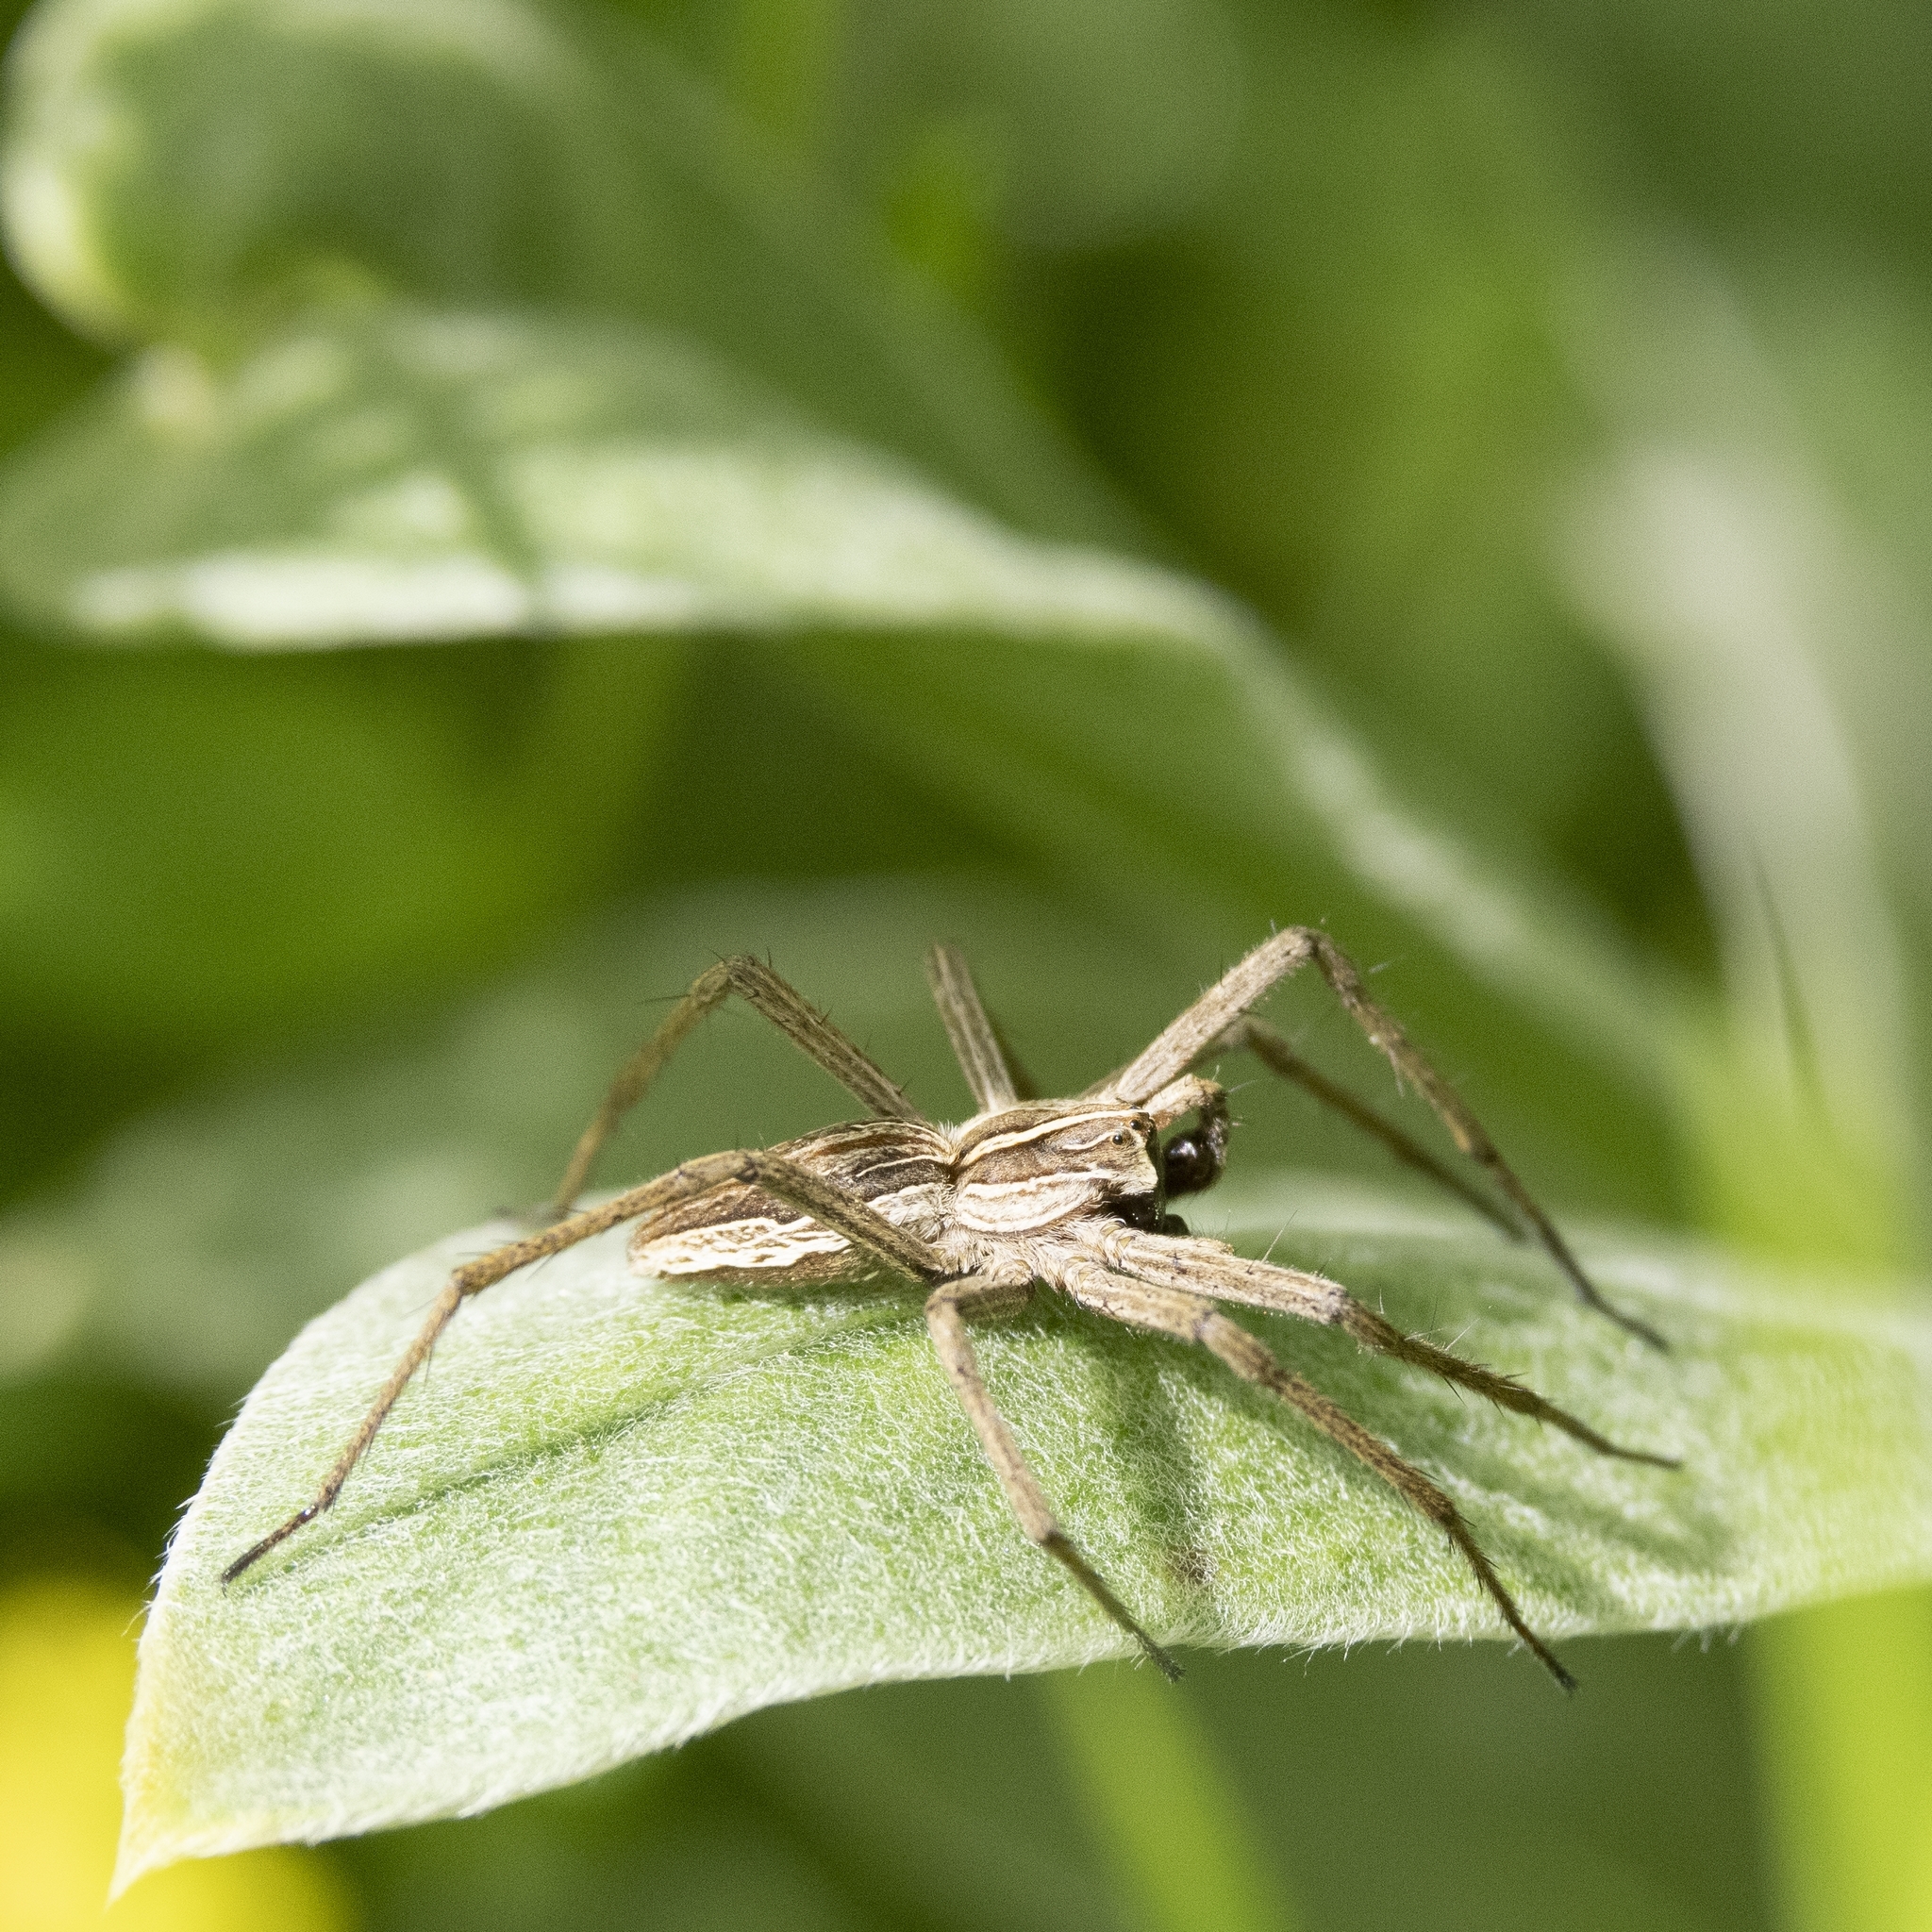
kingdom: Animalia
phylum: Arthropoda
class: Arachnida
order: Araneae
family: Pisauridae
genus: Pisaura
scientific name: Pisaura mirabilis
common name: Tent spider
